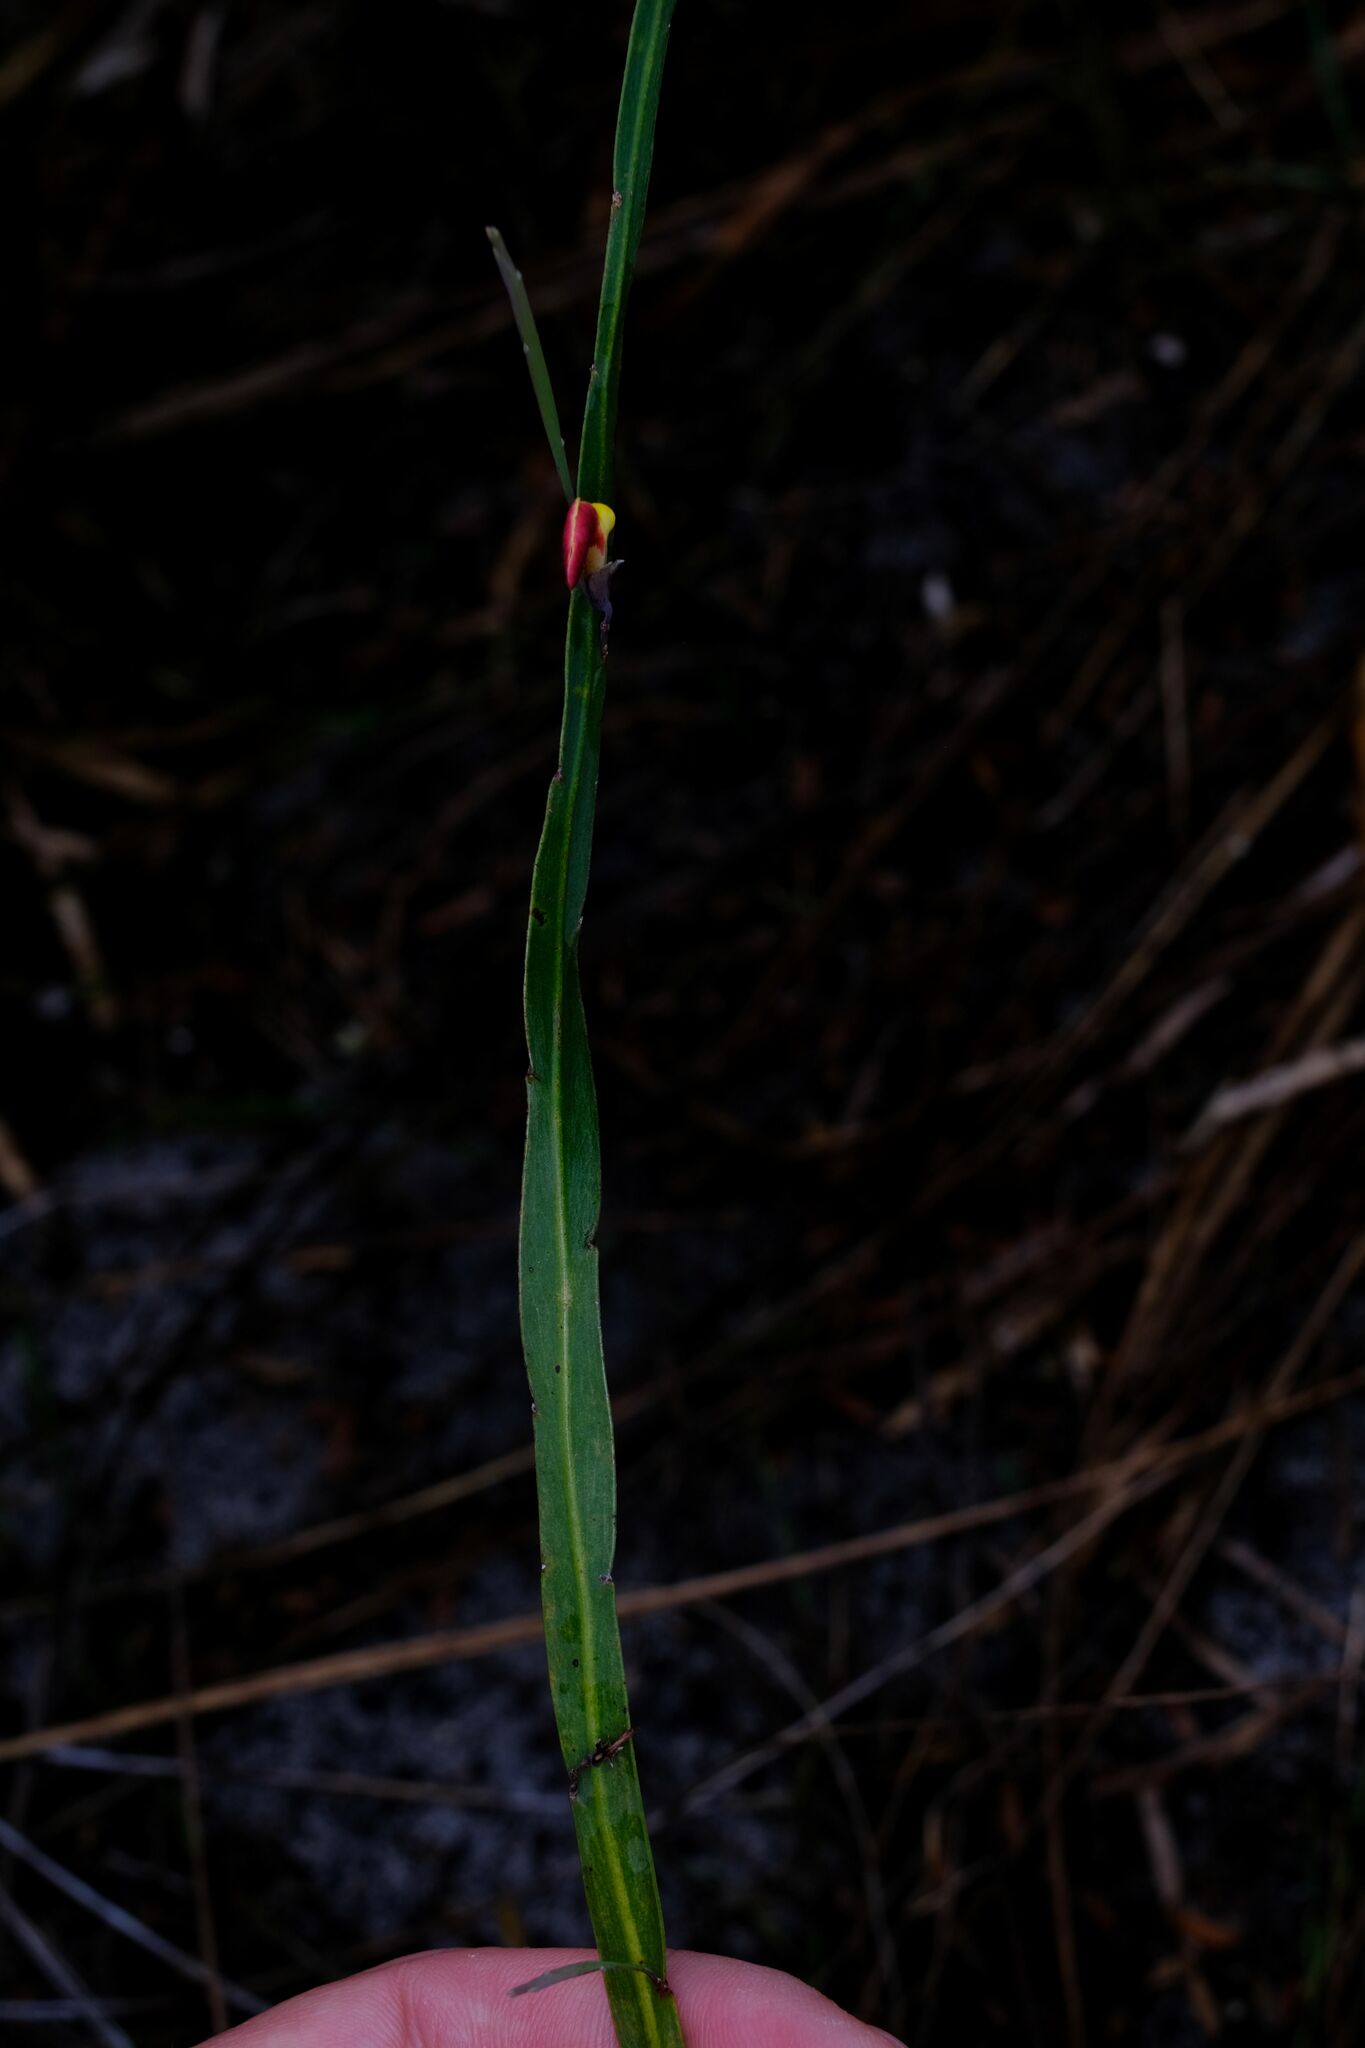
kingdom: Plantae
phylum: Tracheophyta
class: Magnoliopsida
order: Fabales
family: Fabaceae
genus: Bossiaea
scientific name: Bossiaea ensata
